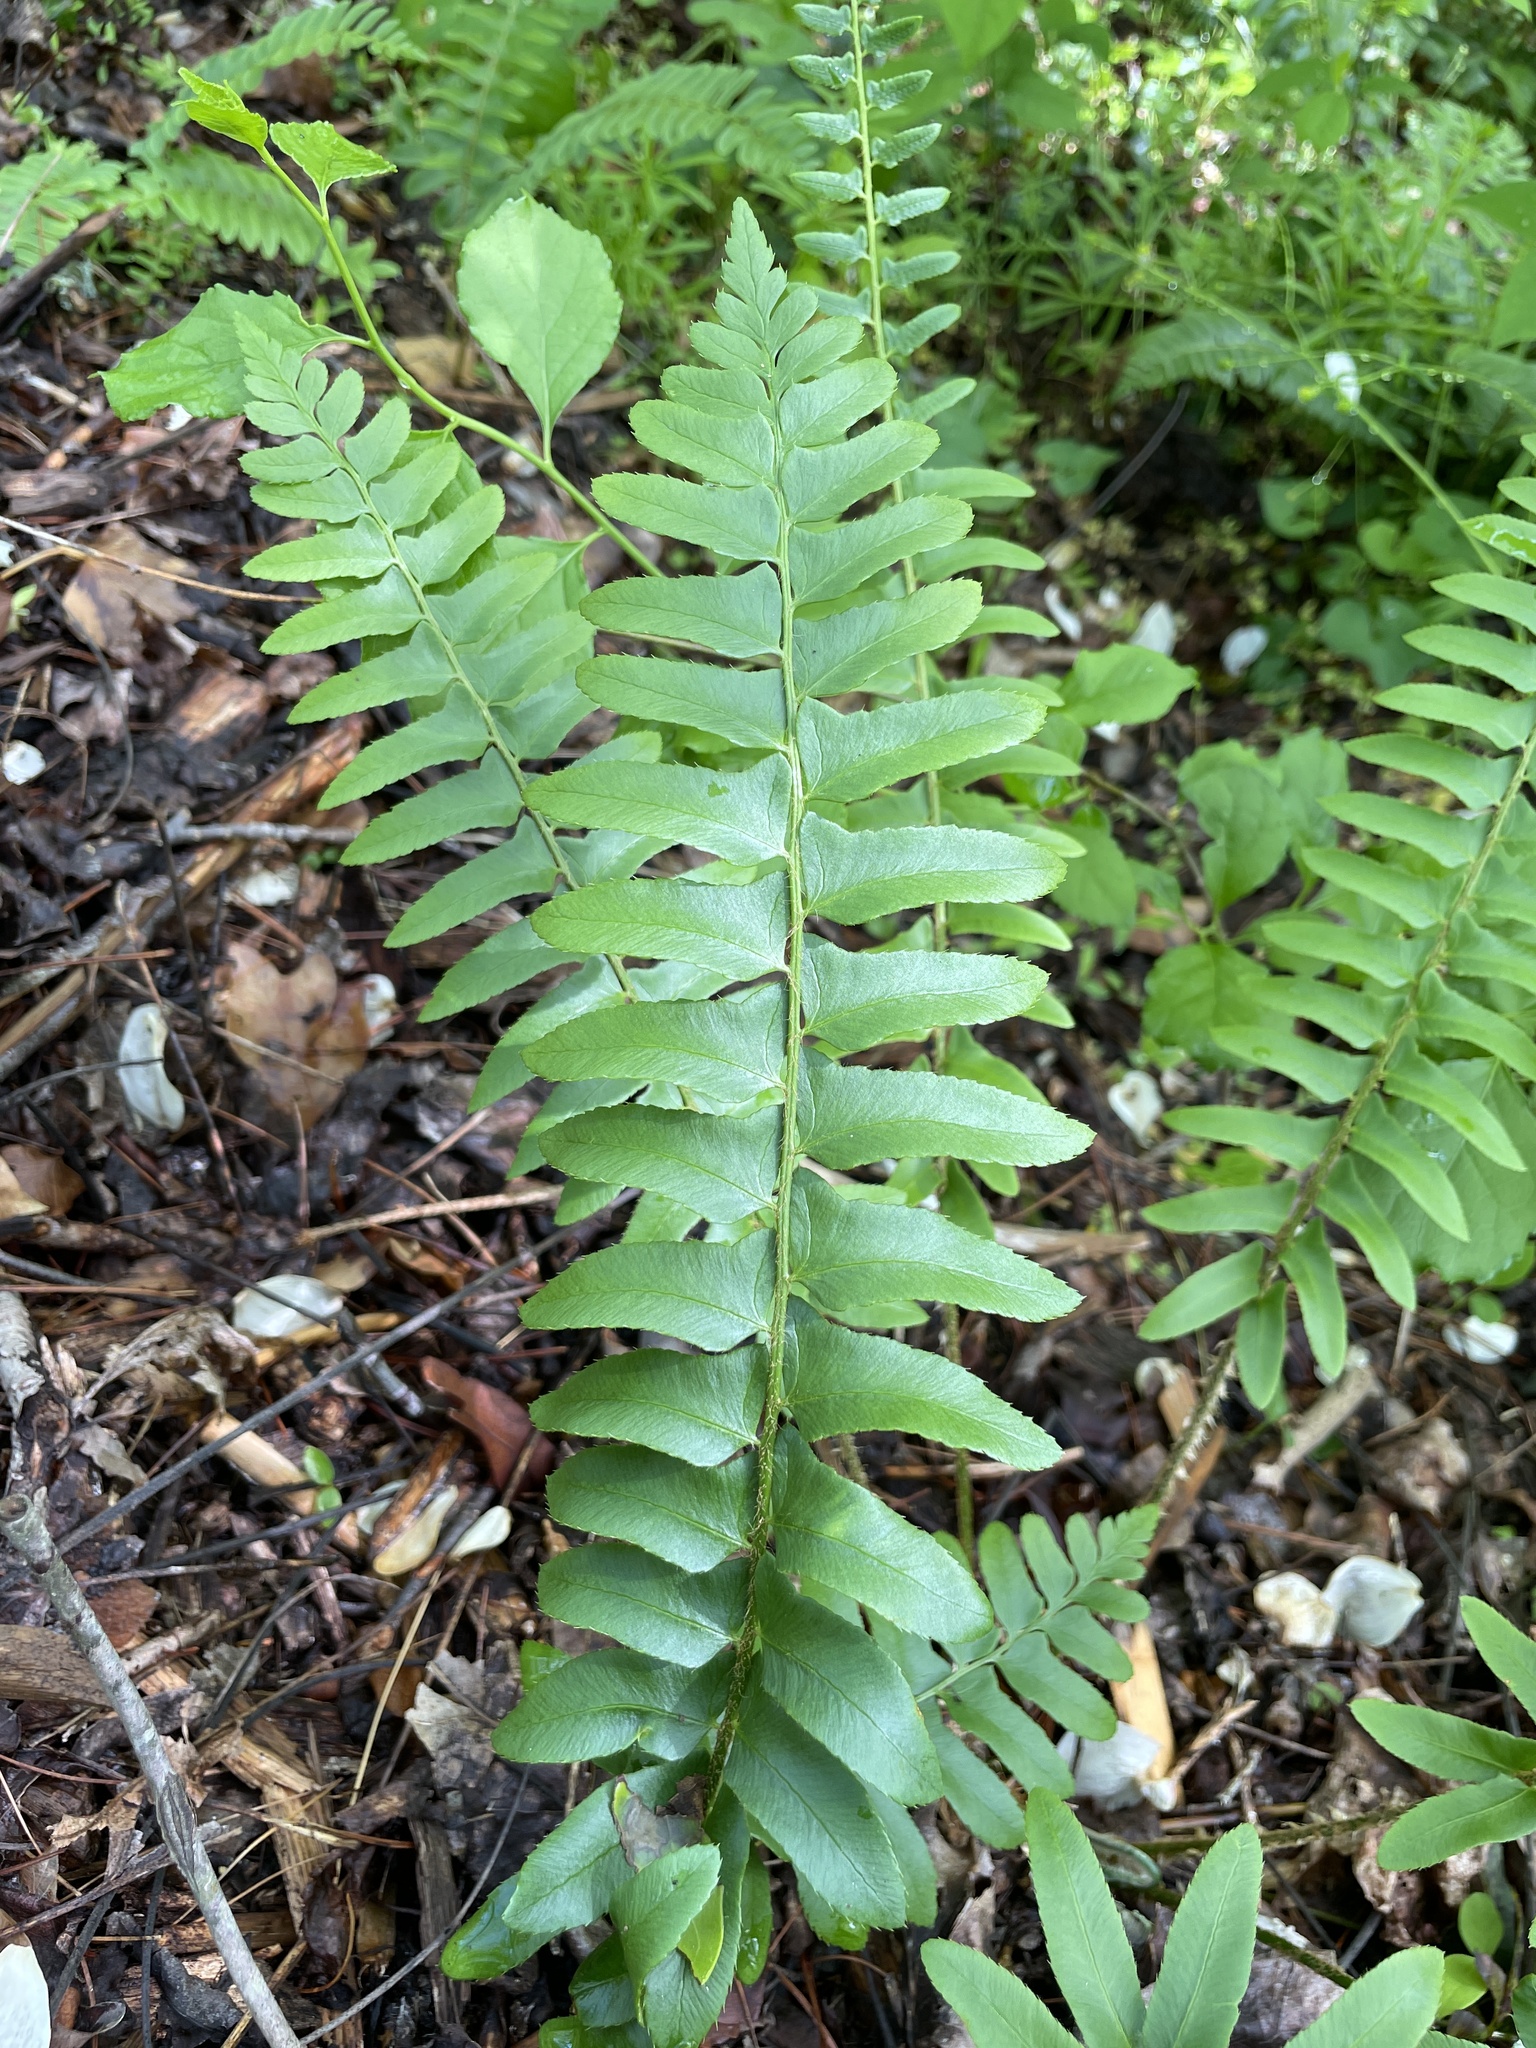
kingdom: Plantae
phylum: Tracheophyta
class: Polypodiopsida
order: Polypodiales
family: Dryopteridaceae
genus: Polystichum
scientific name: Polystichum acrostichoides
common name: Christmas fern
